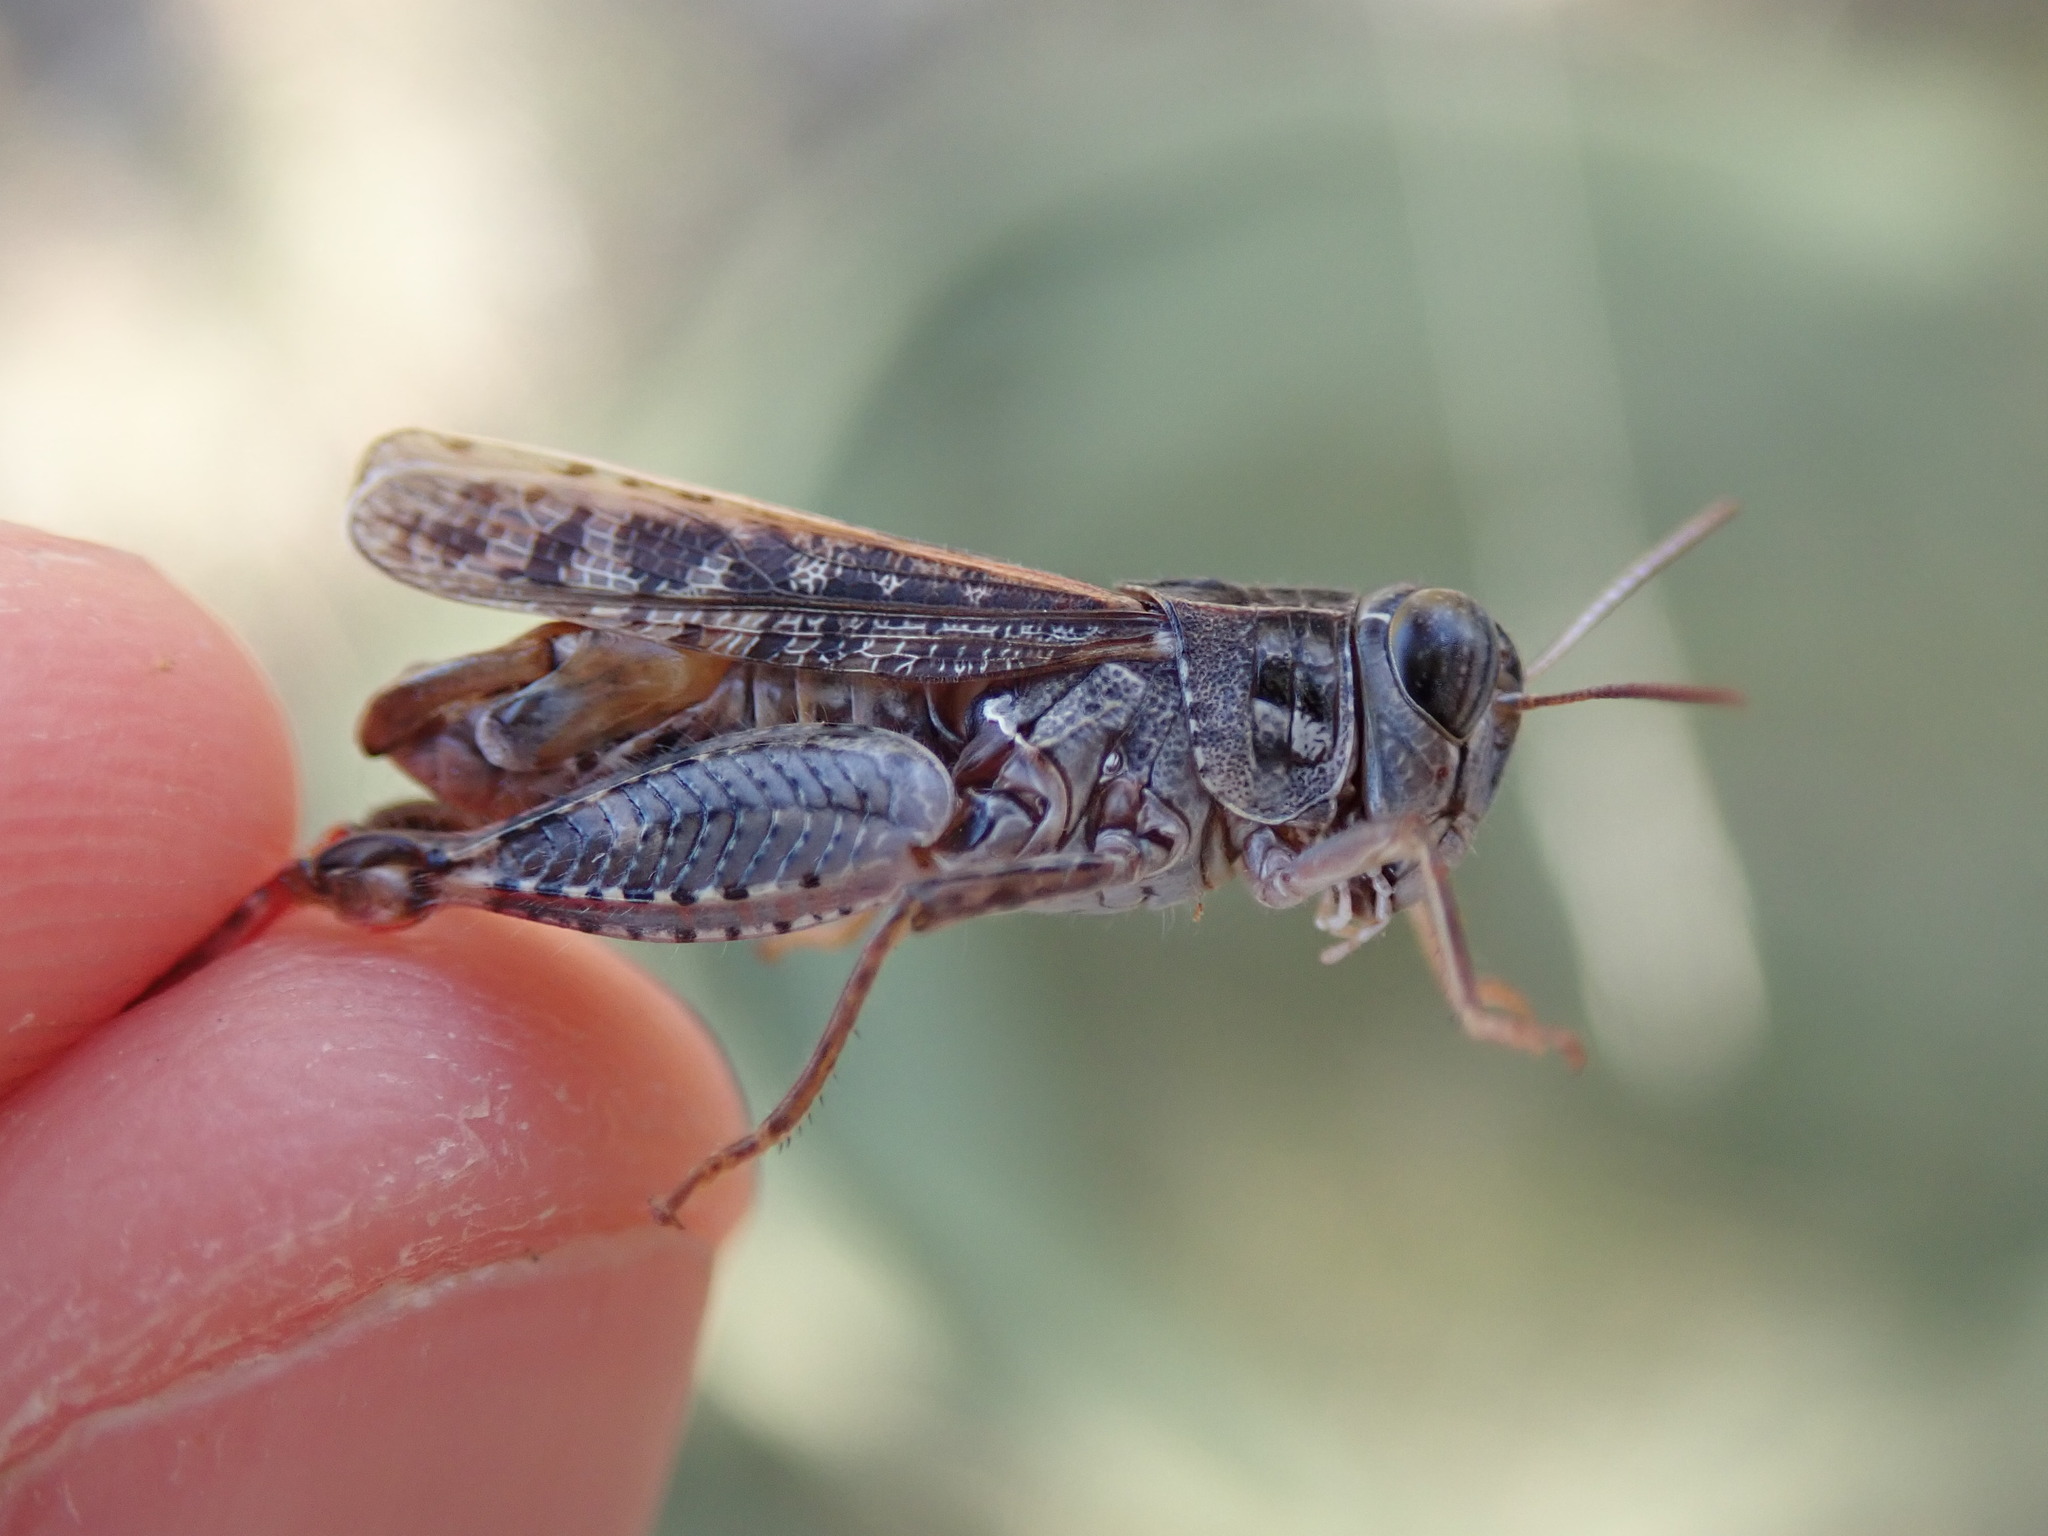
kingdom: Animalia
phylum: Arthropoda
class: Insecta
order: Orthoptera
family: Acrididae
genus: Calliptamus
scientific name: Calliptamus barbarus
